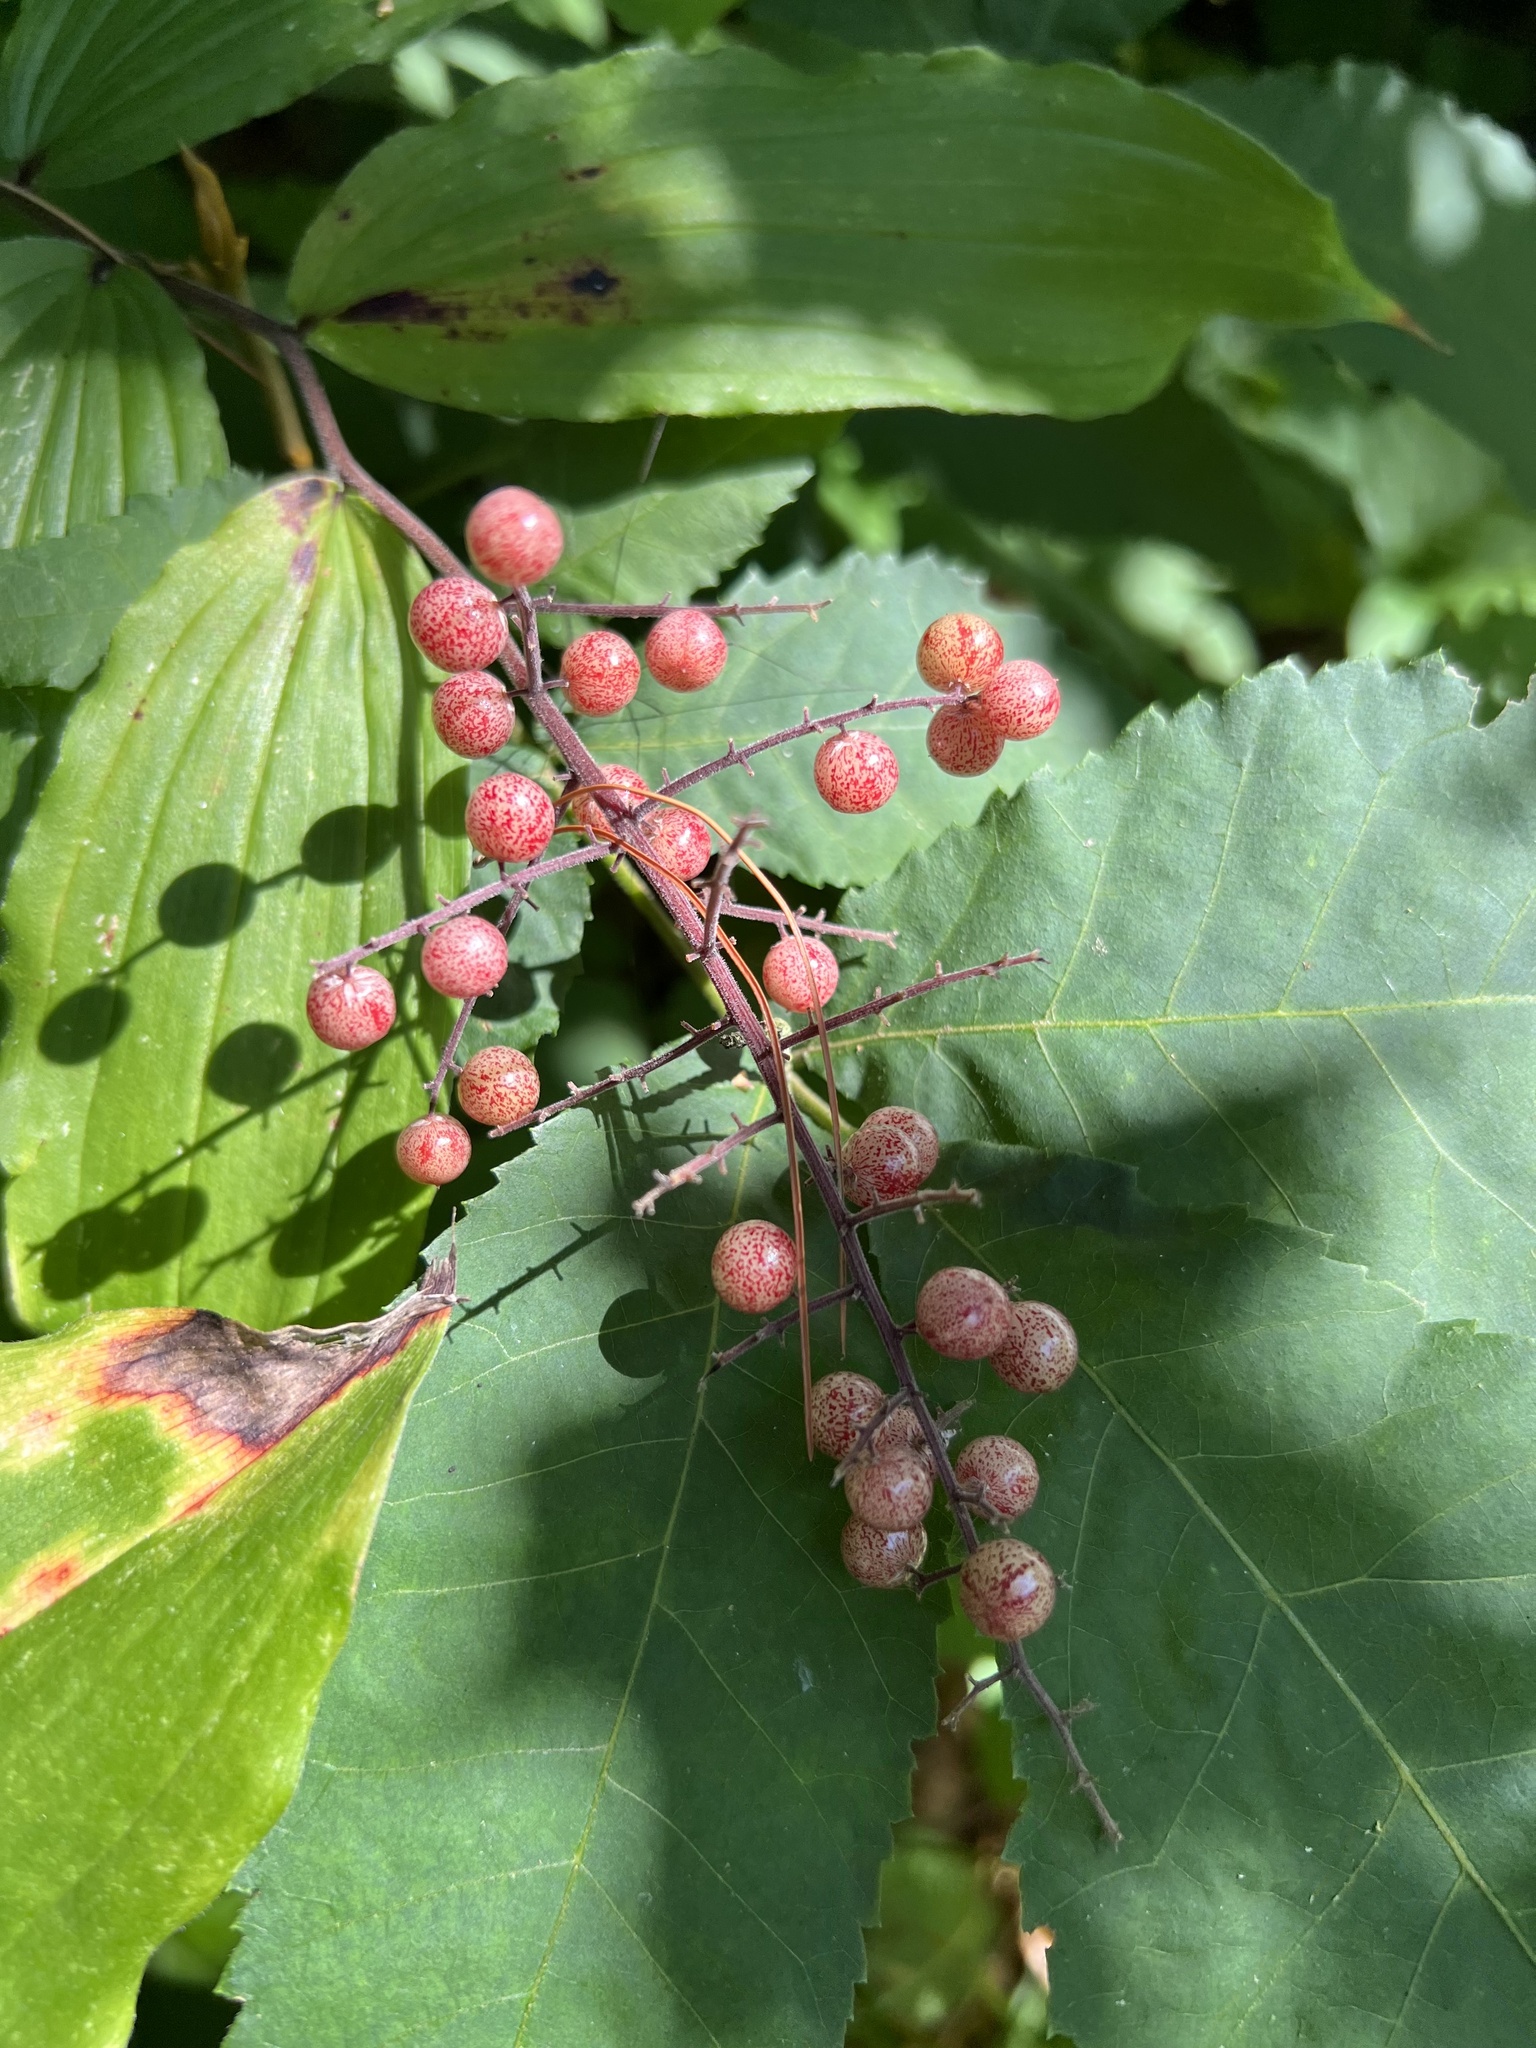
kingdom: Plantae
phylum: Tracheophyta
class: Liliopsida
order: Asparagales
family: Asparagaceae
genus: Maianthemum
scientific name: Maianthemum racemosum
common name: False spikenard
